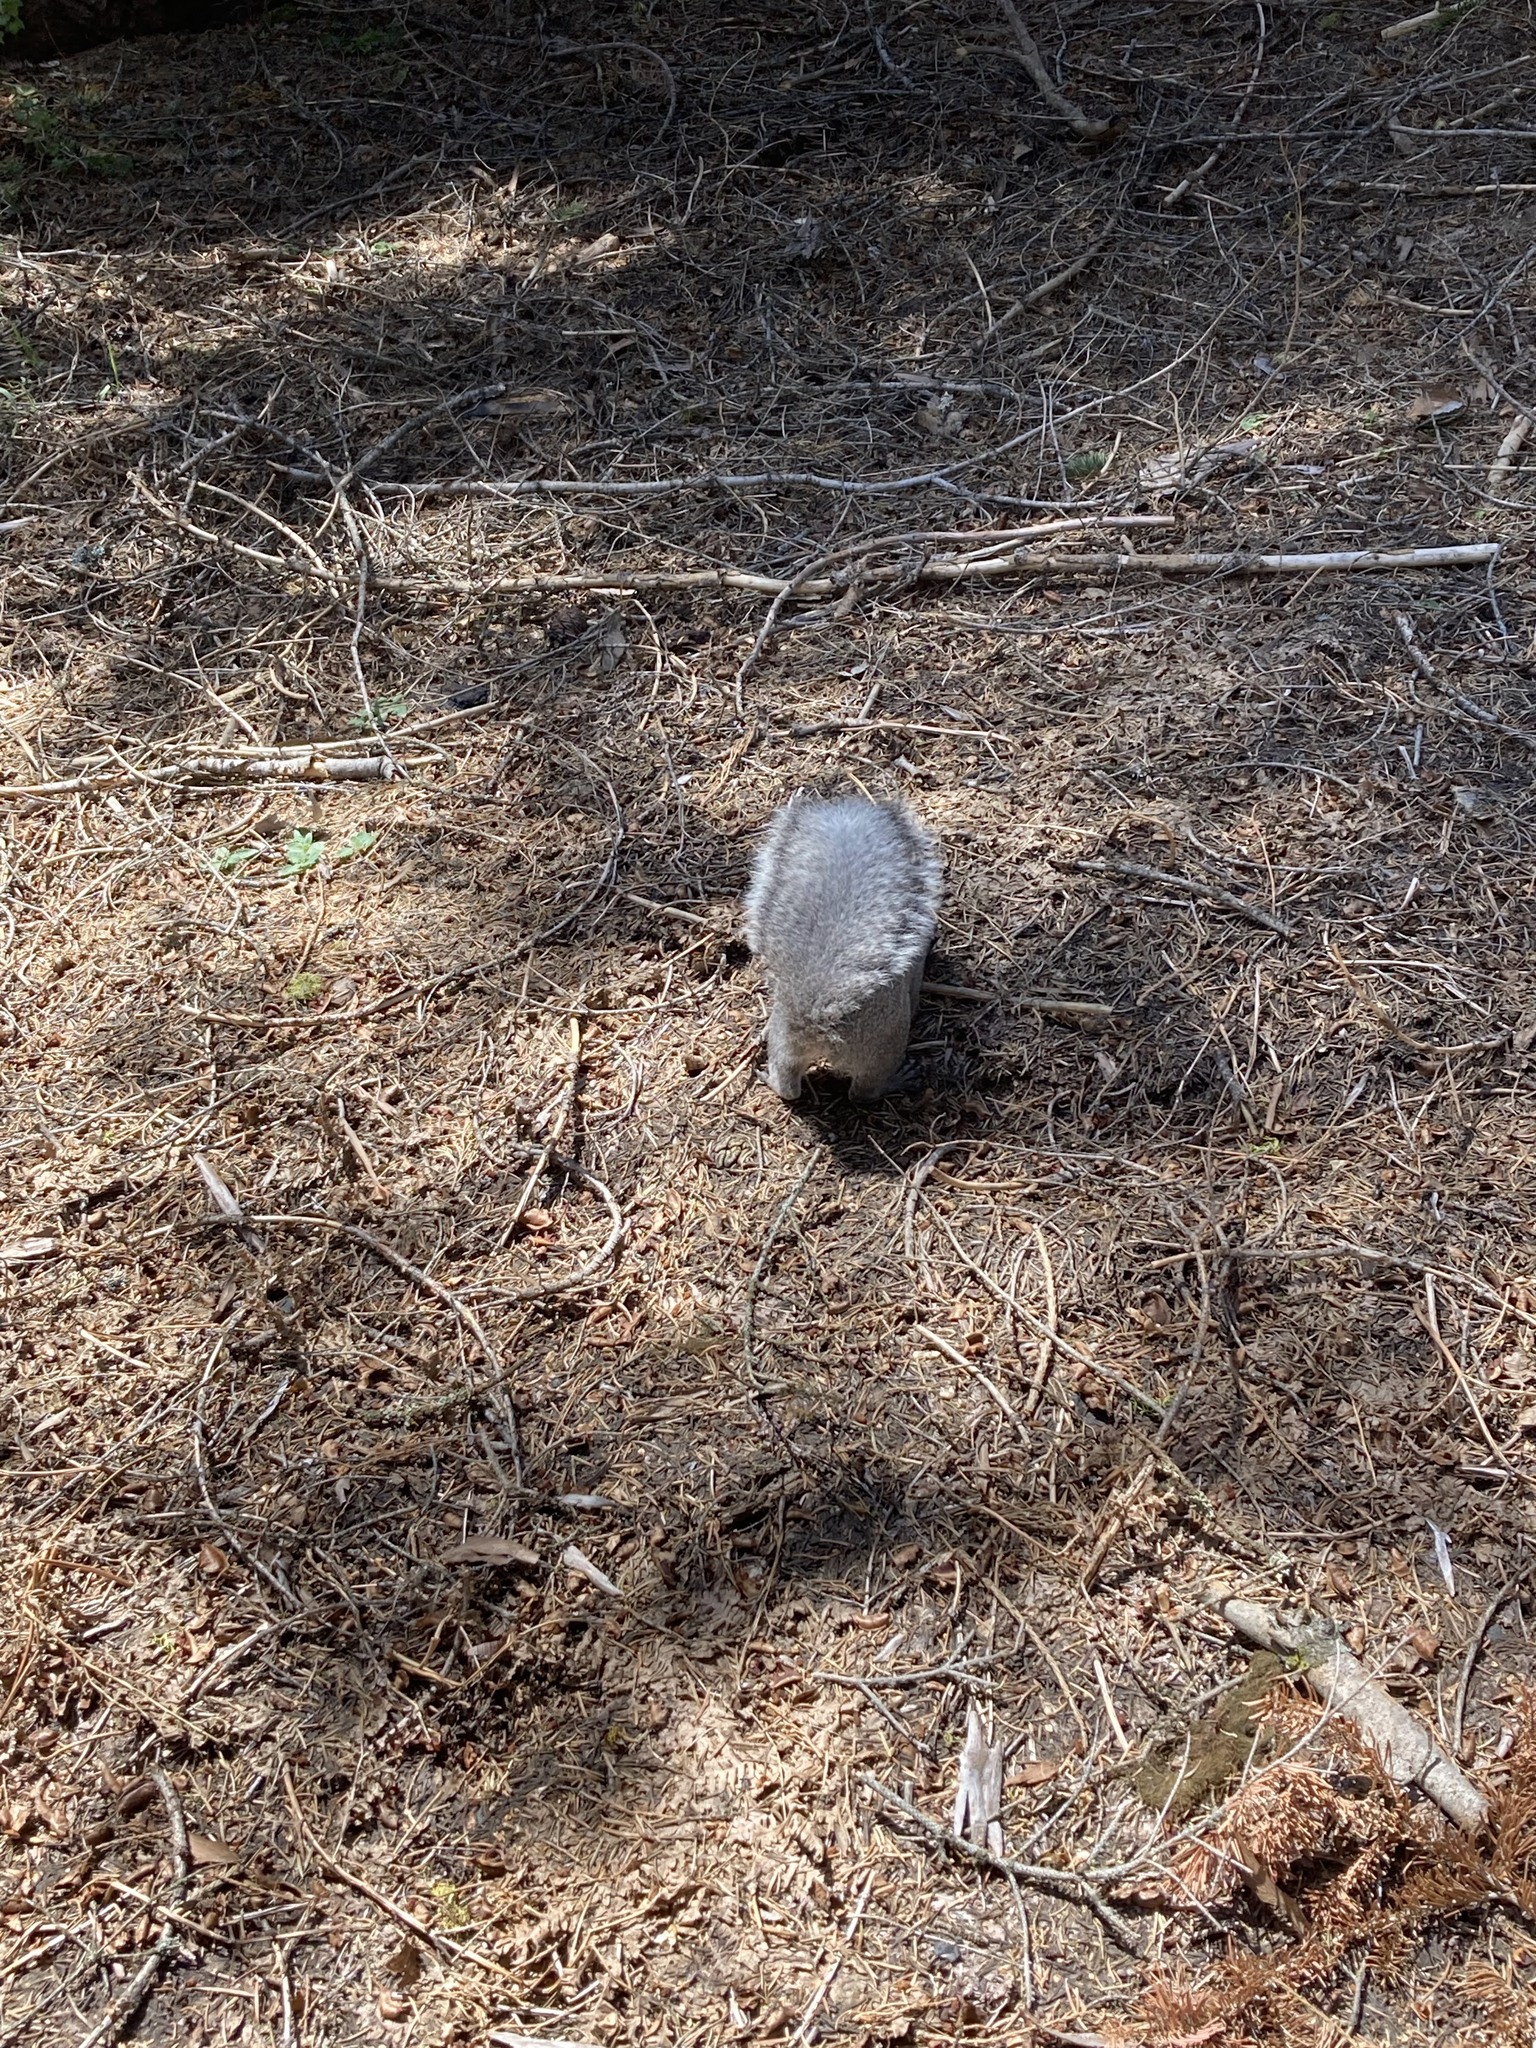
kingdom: Animalia
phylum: Chordata
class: Mammalia
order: Rodentia
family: Sciuridae
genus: Sciurus
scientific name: Sciurus griseus
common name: Western gray squirrel
